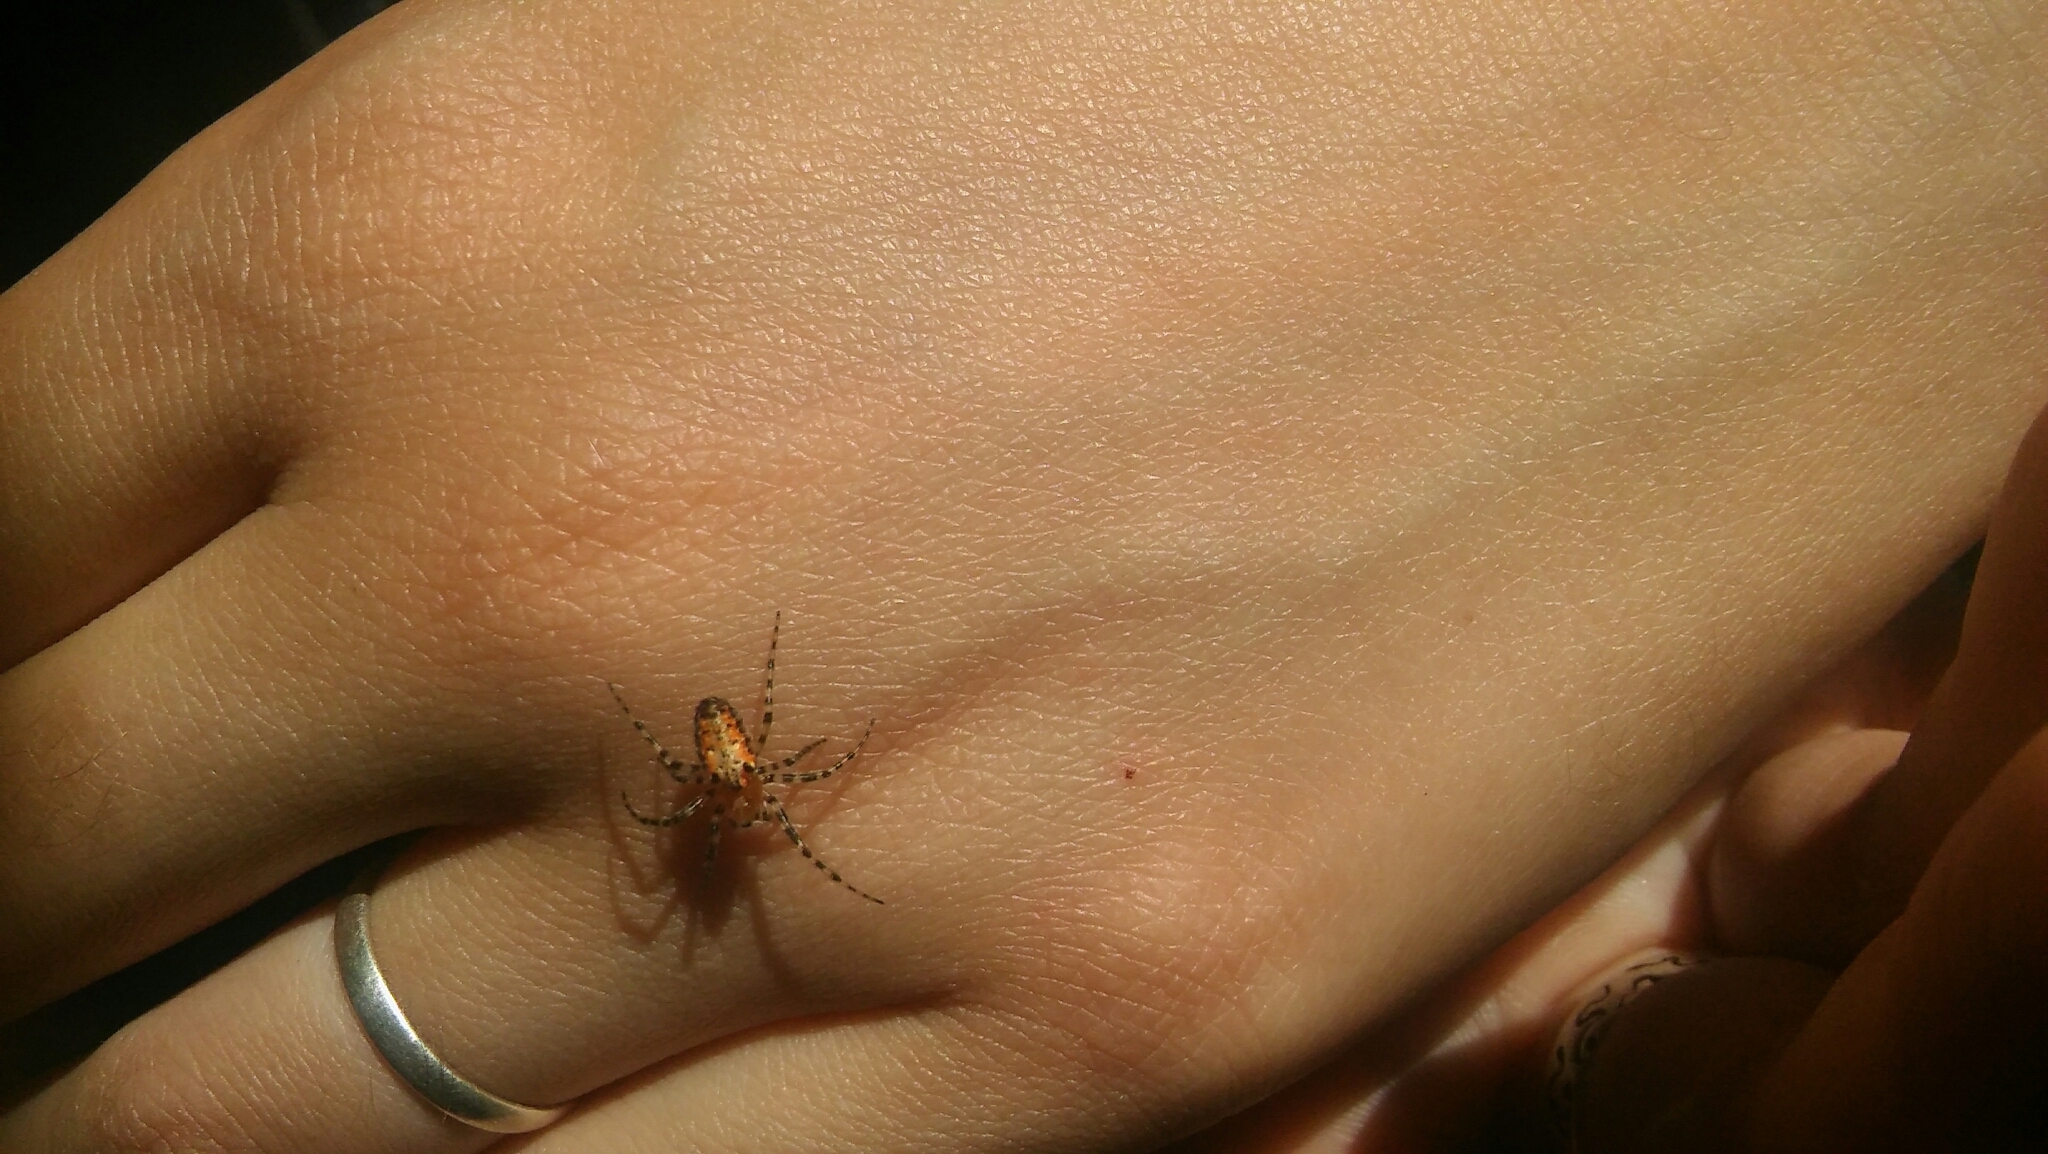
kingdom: Animalia
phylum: Arthropoda
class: Arachnida
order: Araneae
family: Araneidae
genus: Alpaida
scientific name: Alpaida gallardoi
